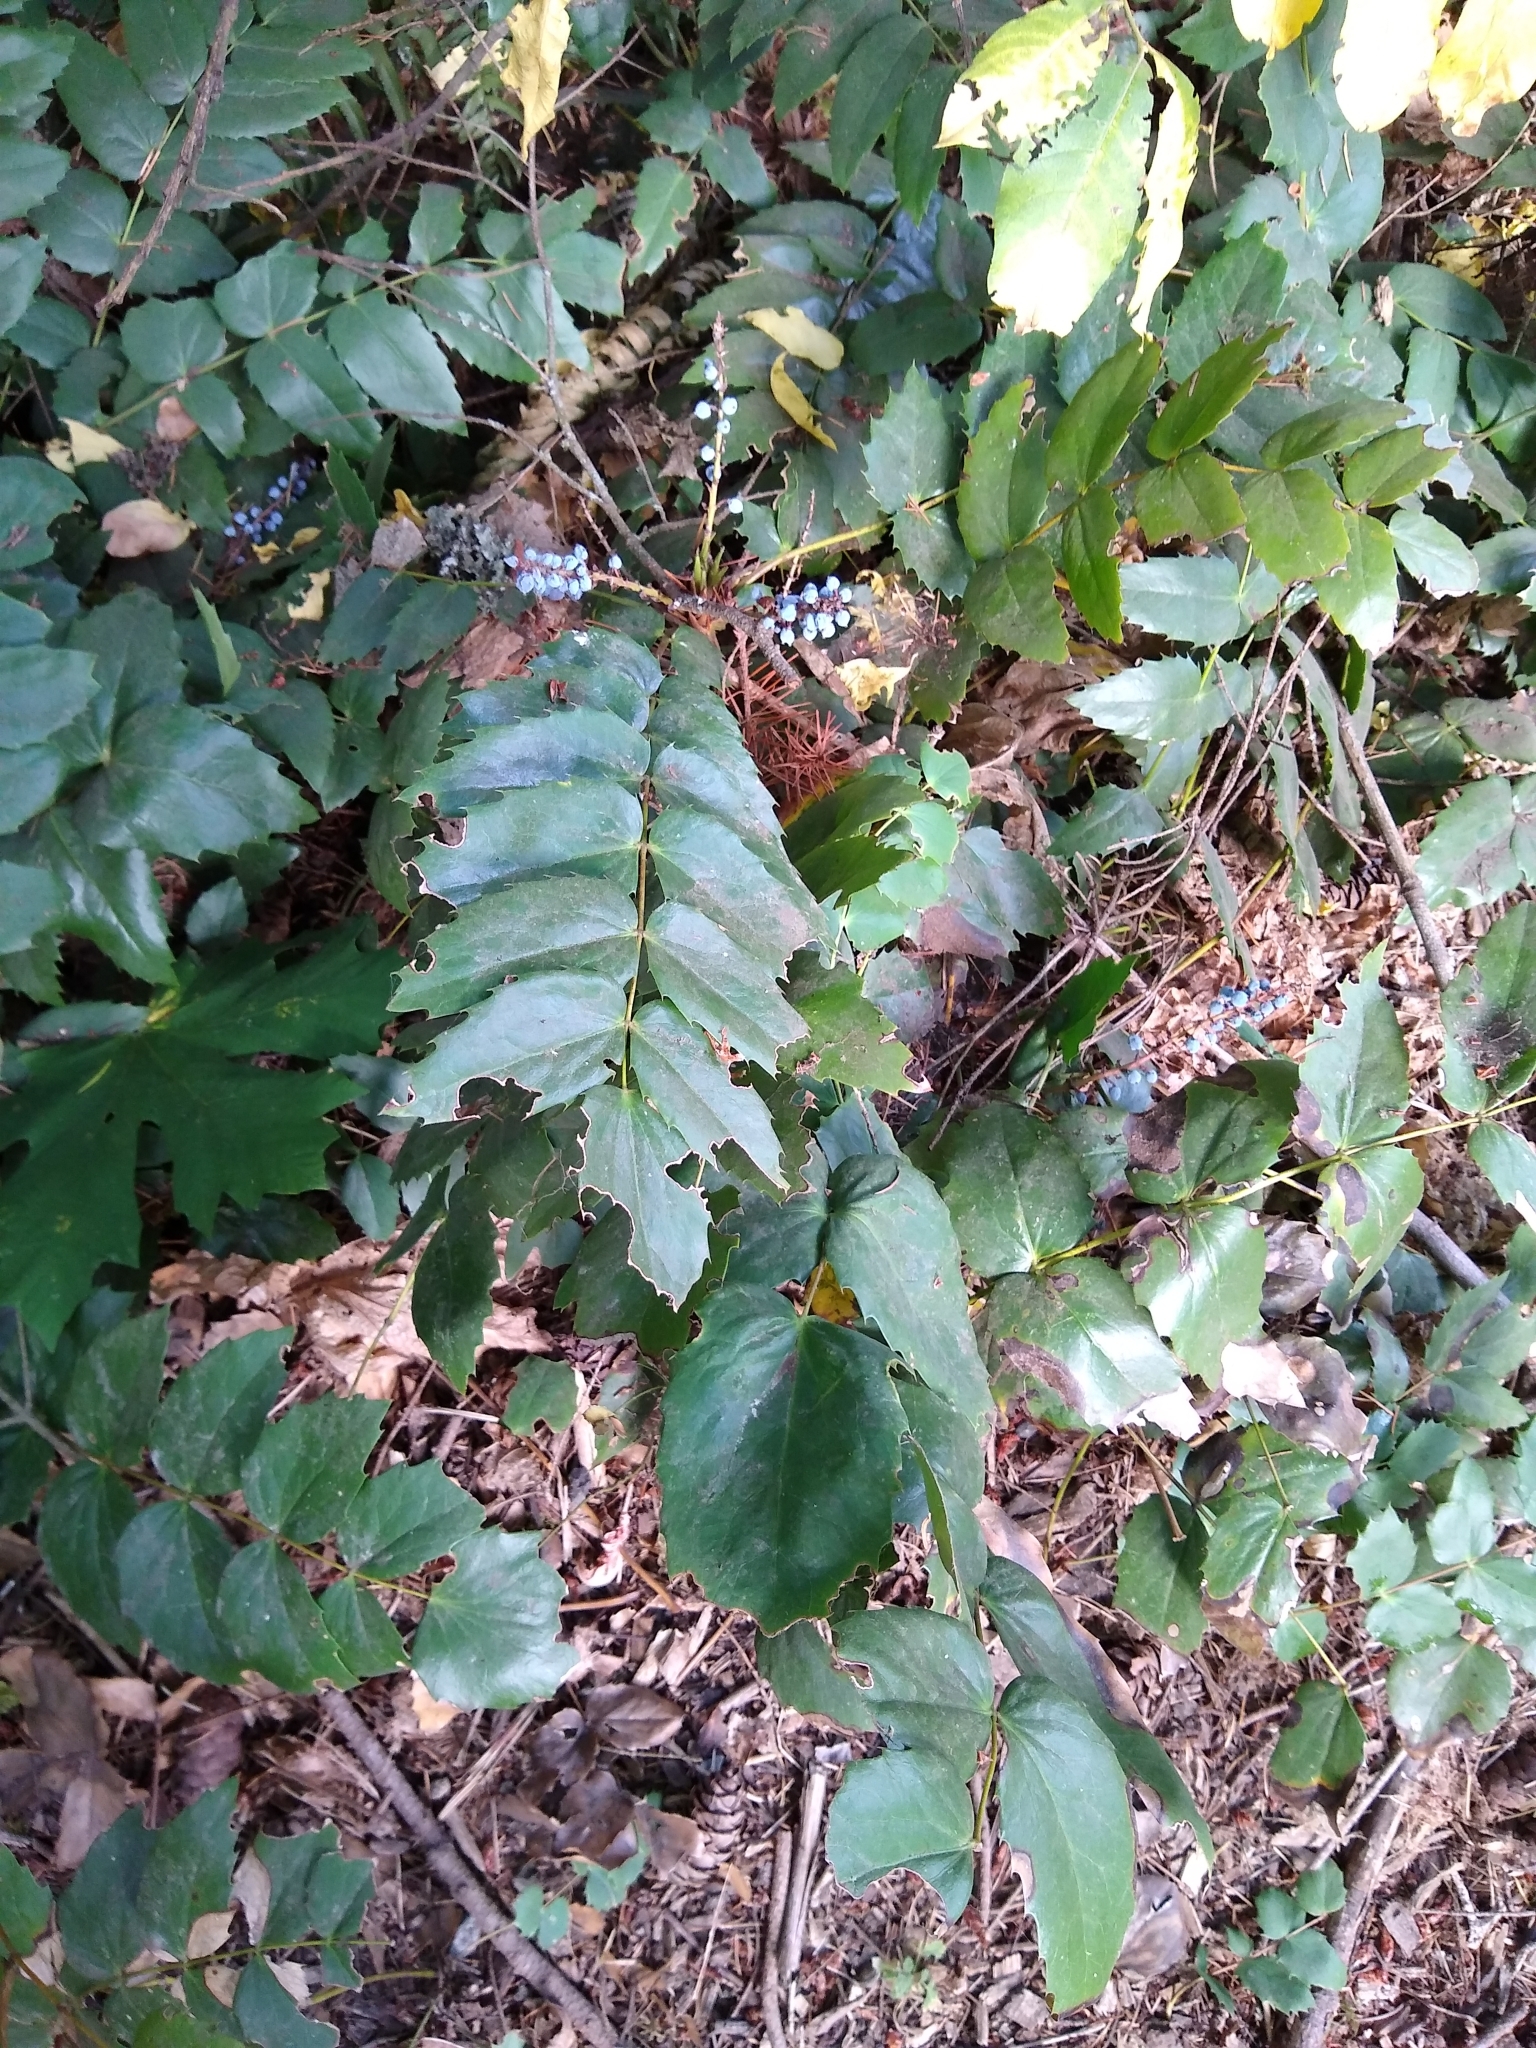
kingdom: Plantae
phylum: Tracheophyta
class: Magnoliopsida
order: Ranunculales
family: Berberidaceae
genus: Mahonia
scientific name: Mahonia nervosa
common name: Cascade oregon-grape
